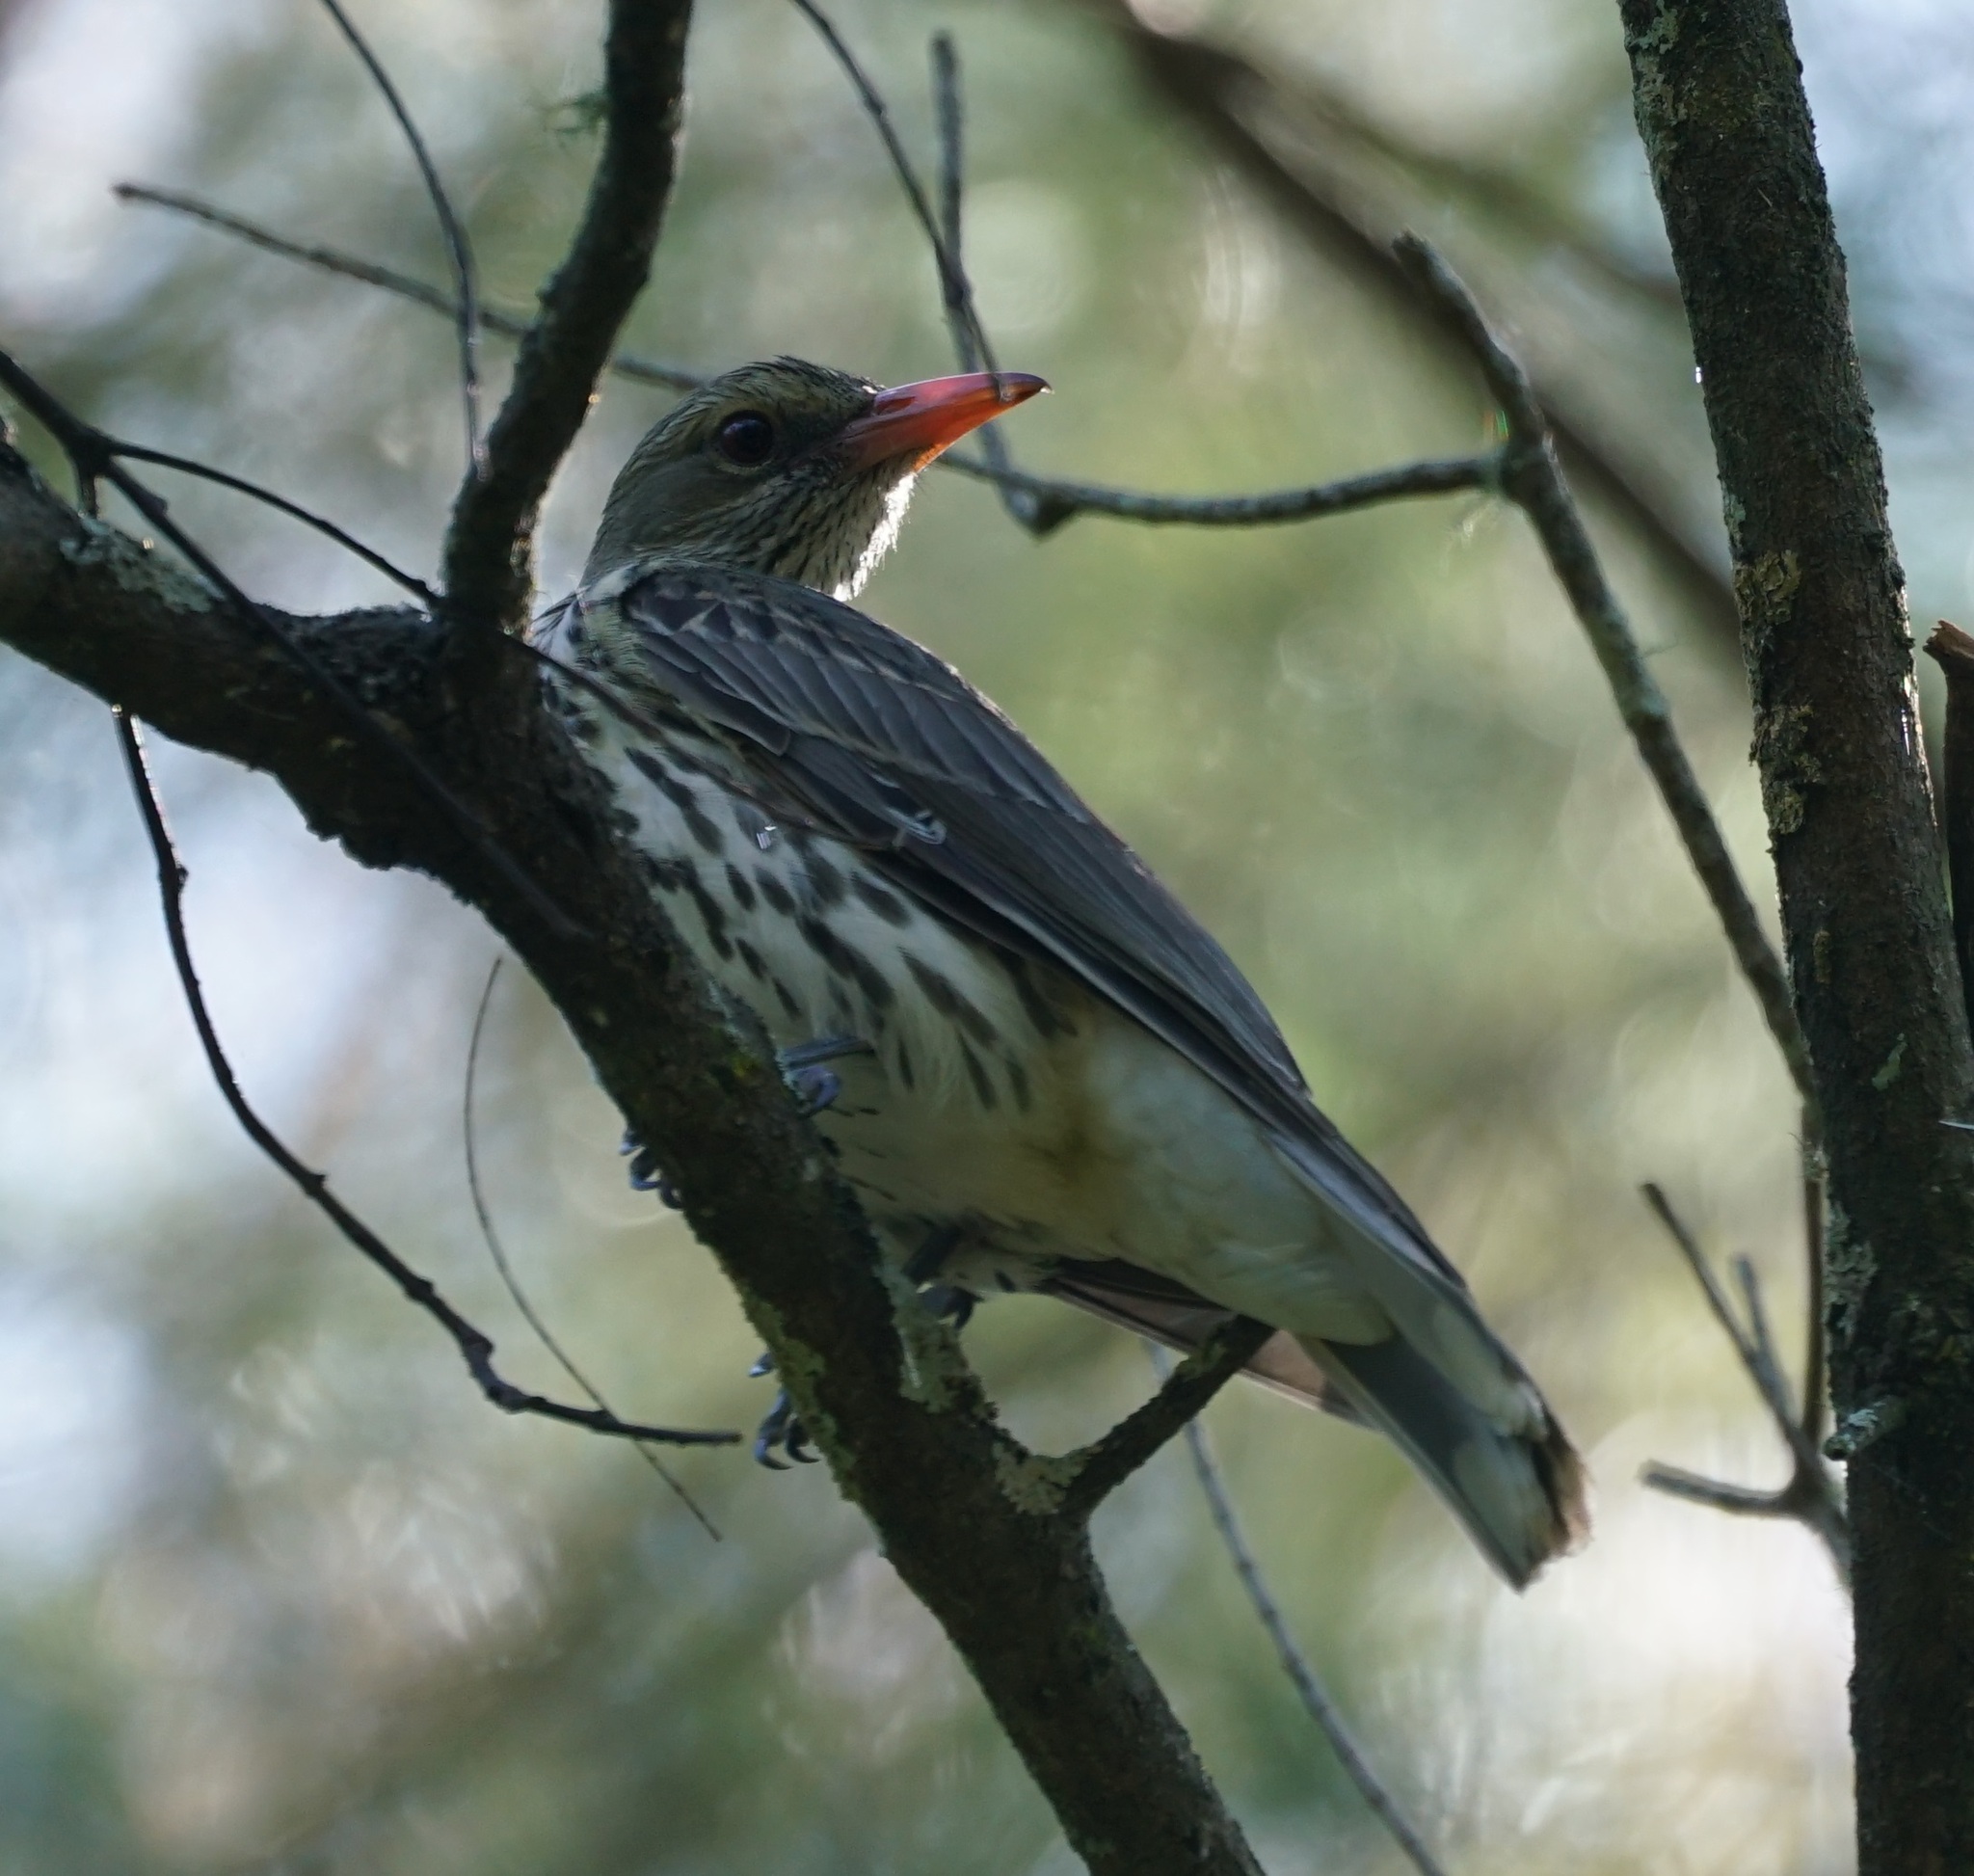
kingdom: Animalia
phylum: Chordata
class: Aves
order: Passeriformes
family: Oriolidae
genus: Oriolus
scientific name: Oriolus sagittatus
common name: Olive-backed oriole
